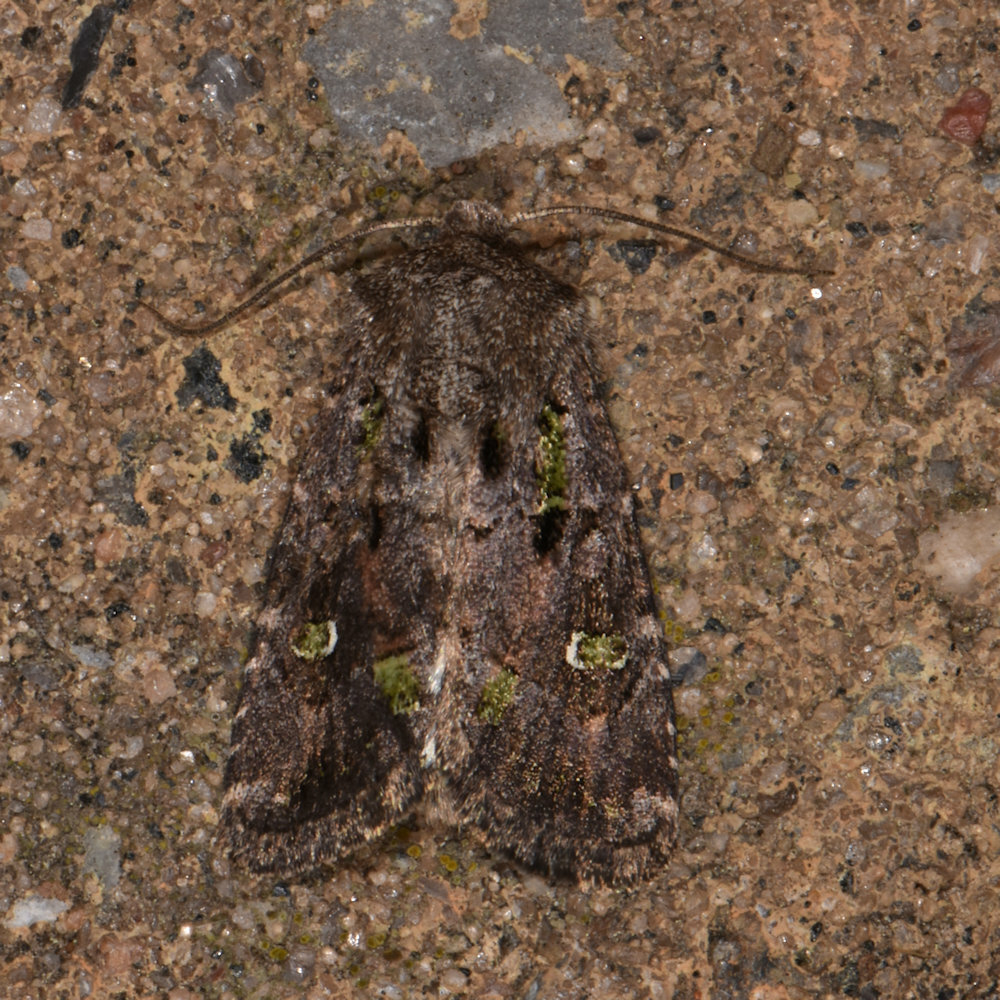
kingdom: Animalia
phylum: Arthropoda
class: Insecta
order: Lepidoptera
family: Noctuidae
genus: Lacinipolia
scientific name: Lacinipolia renigera
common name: Kidney-spotted minor
